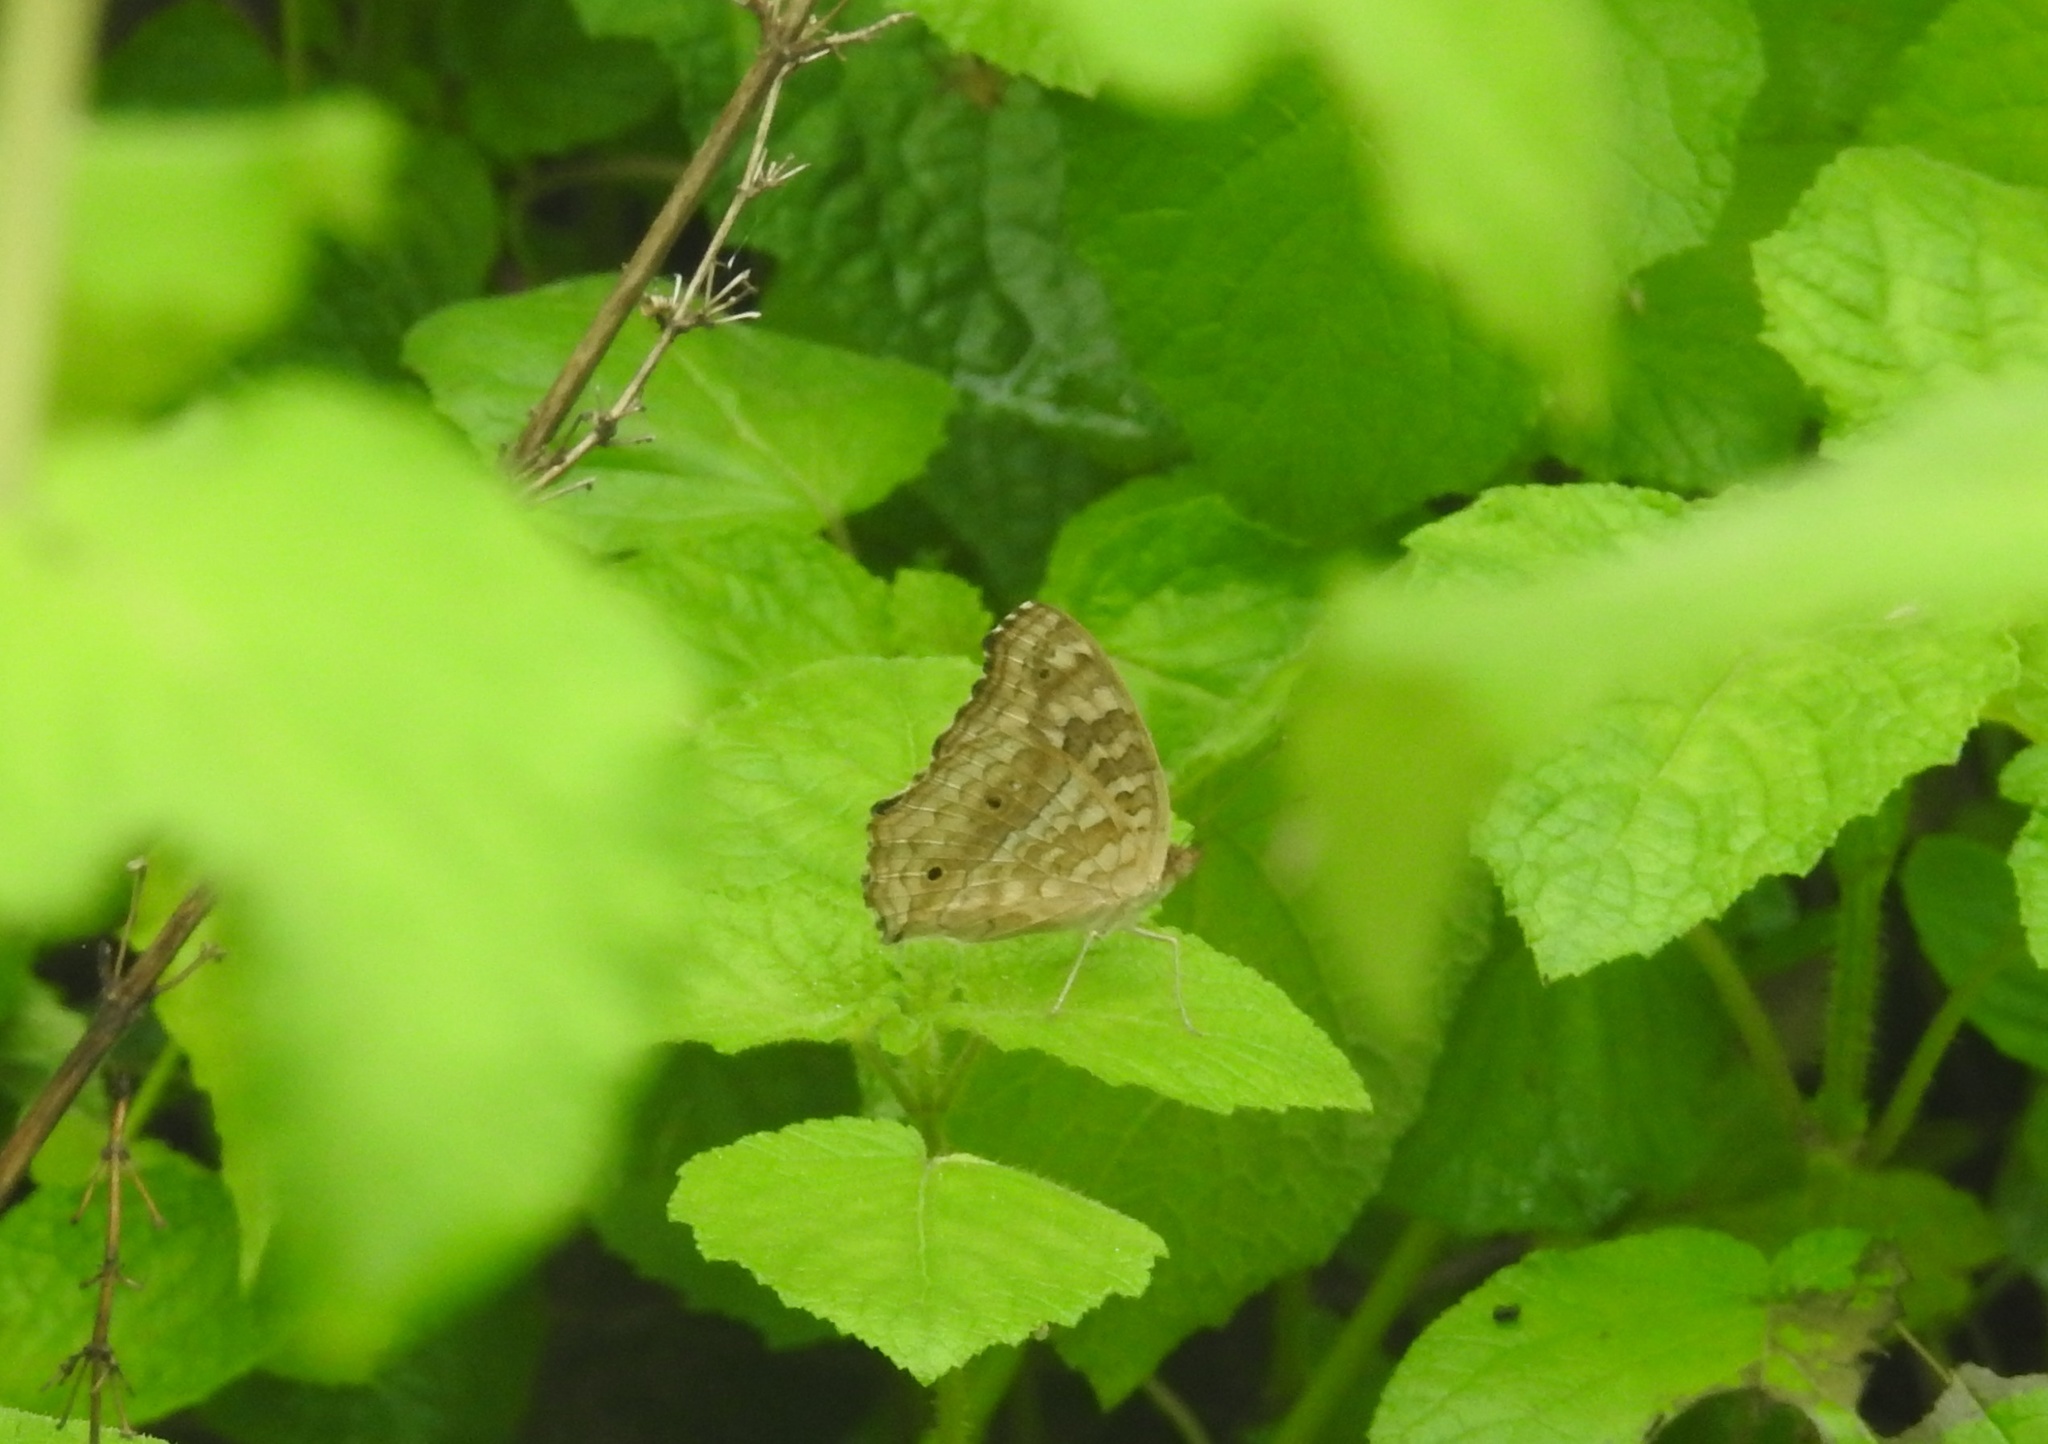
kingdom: Animalia
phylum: Arthropoda
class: Insecta
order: Lepidoptera
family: Nymphalidae
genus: Junonia
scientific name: Junonia lemonias
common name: Lemon pansy
